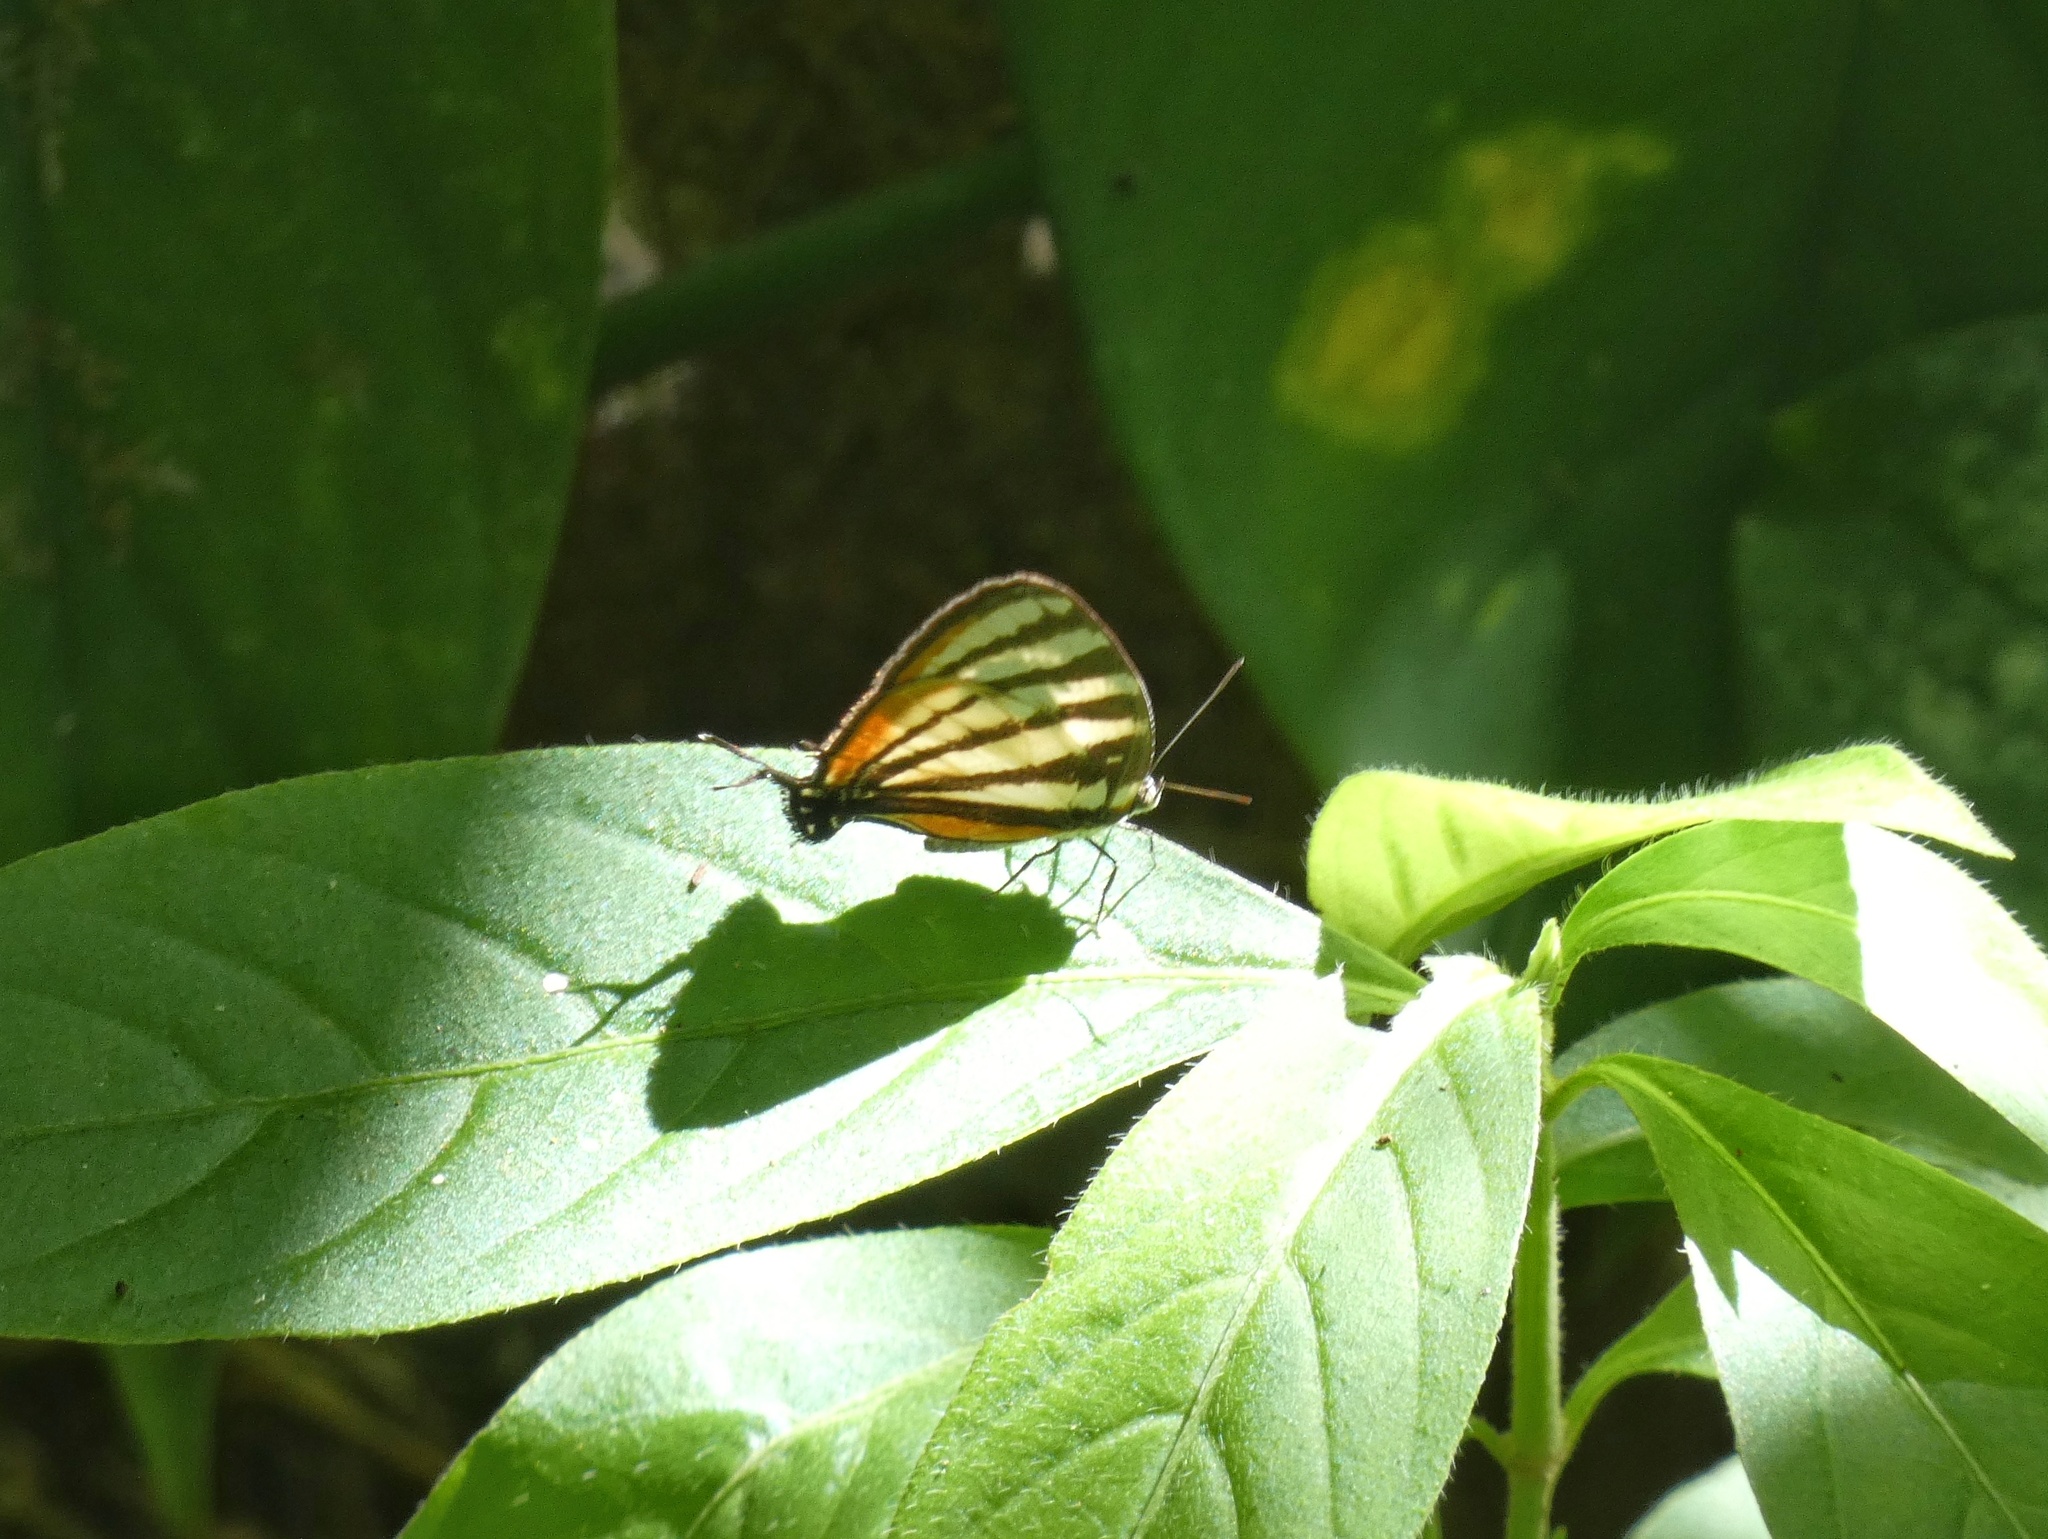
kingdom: Animalia
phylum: Arthropoda
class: Insecta
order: Lepidoptera
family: Lycaenidae
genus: Arawacus
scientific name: Arawacus lincoides
